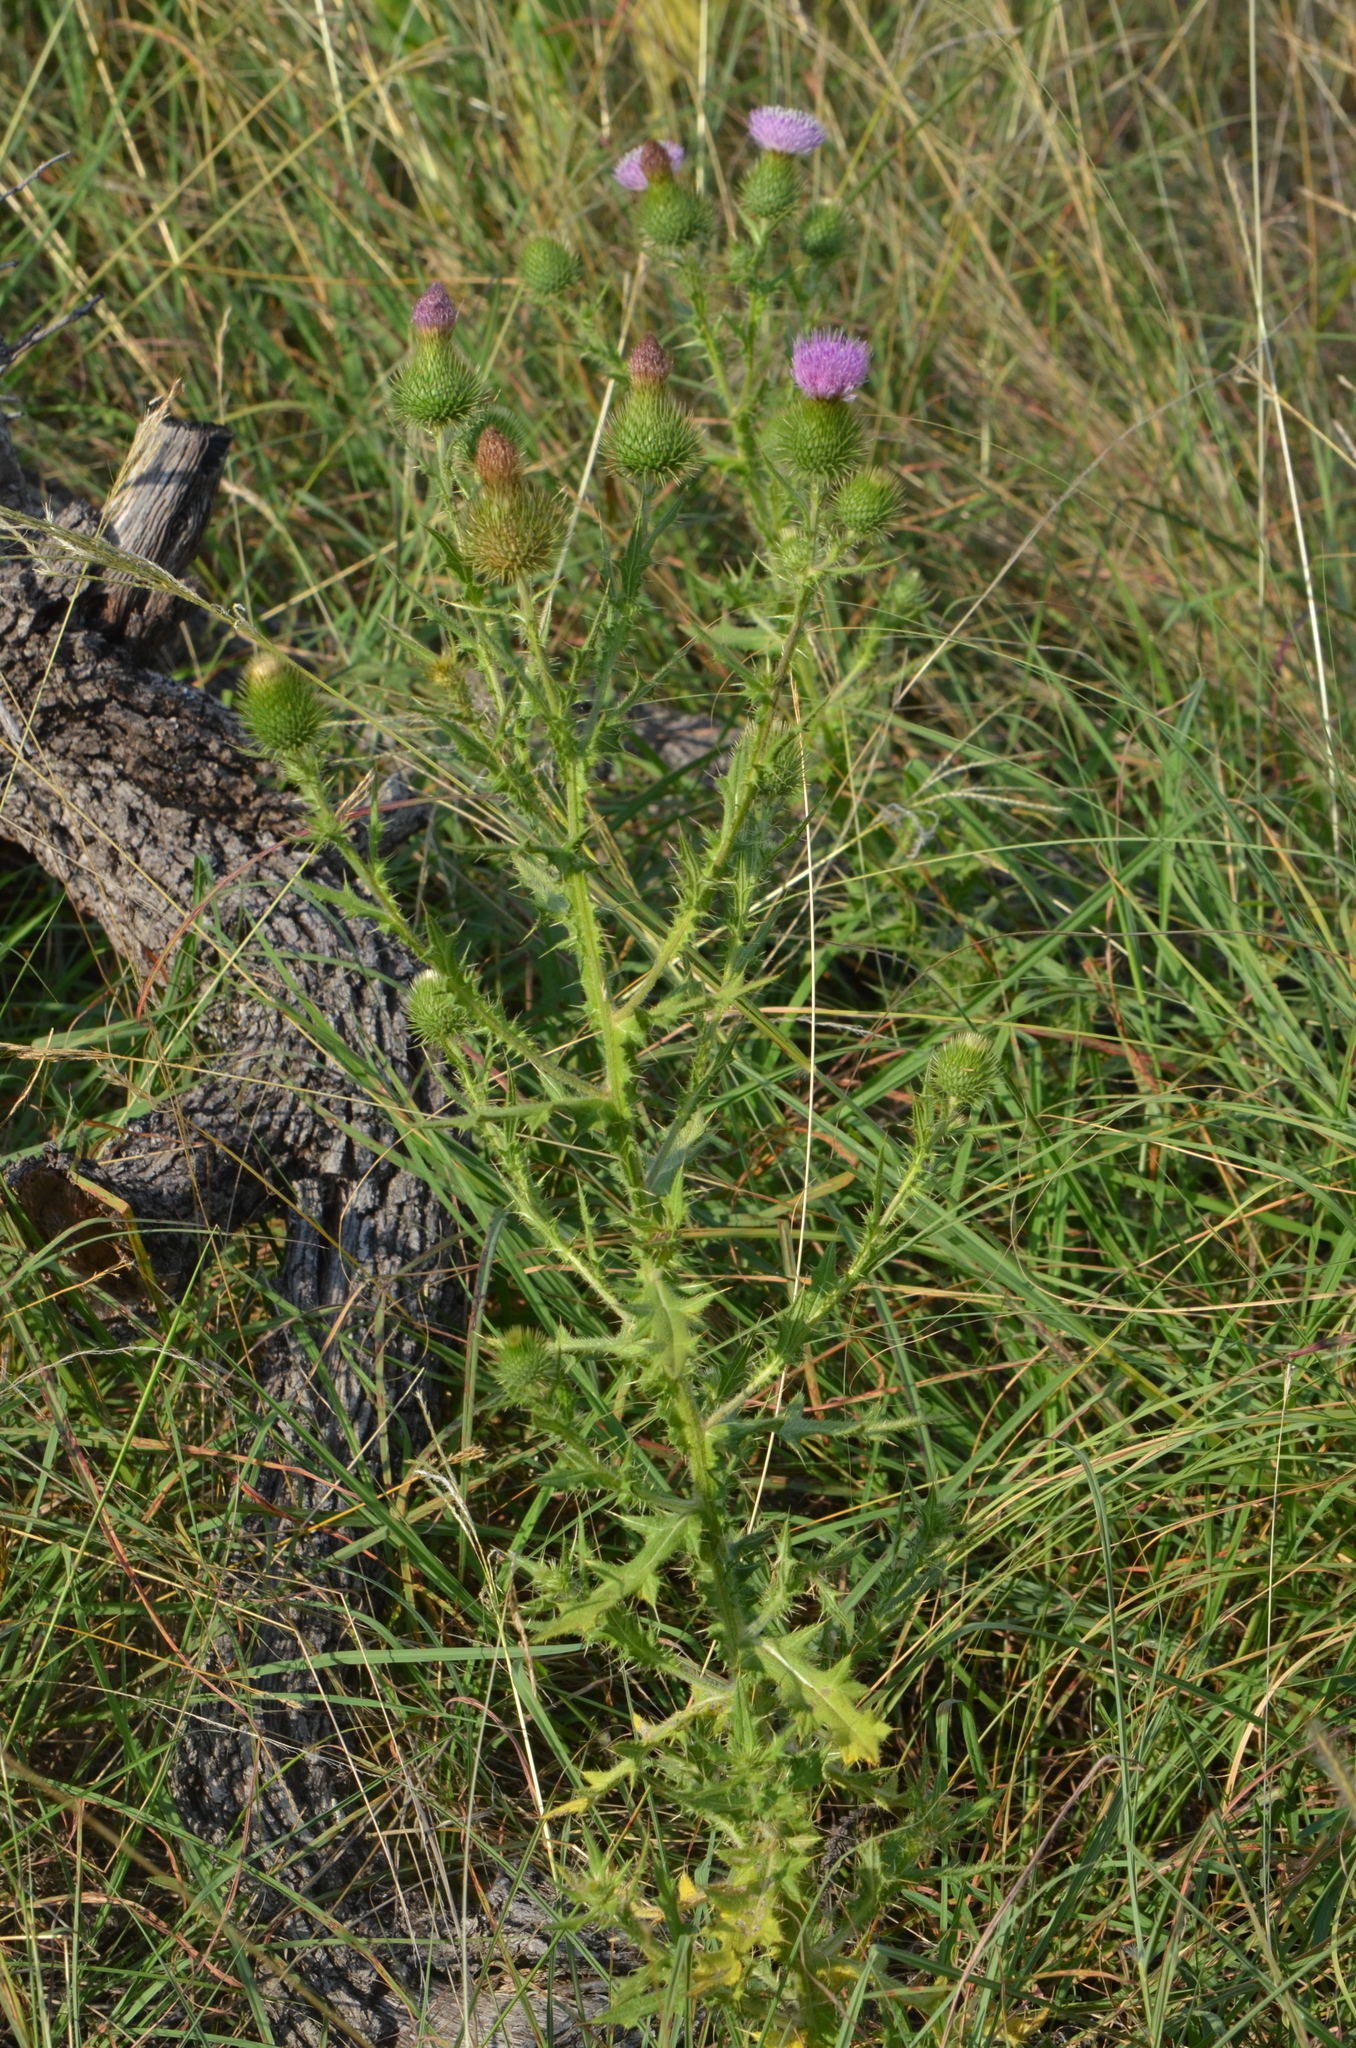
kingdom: Plantae
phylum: Tracheophyta
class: Magnoliopsida
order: Asterales
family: Asteraceae
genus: Cirsium
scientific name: Cirsium vulgare
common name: Bull thistle
